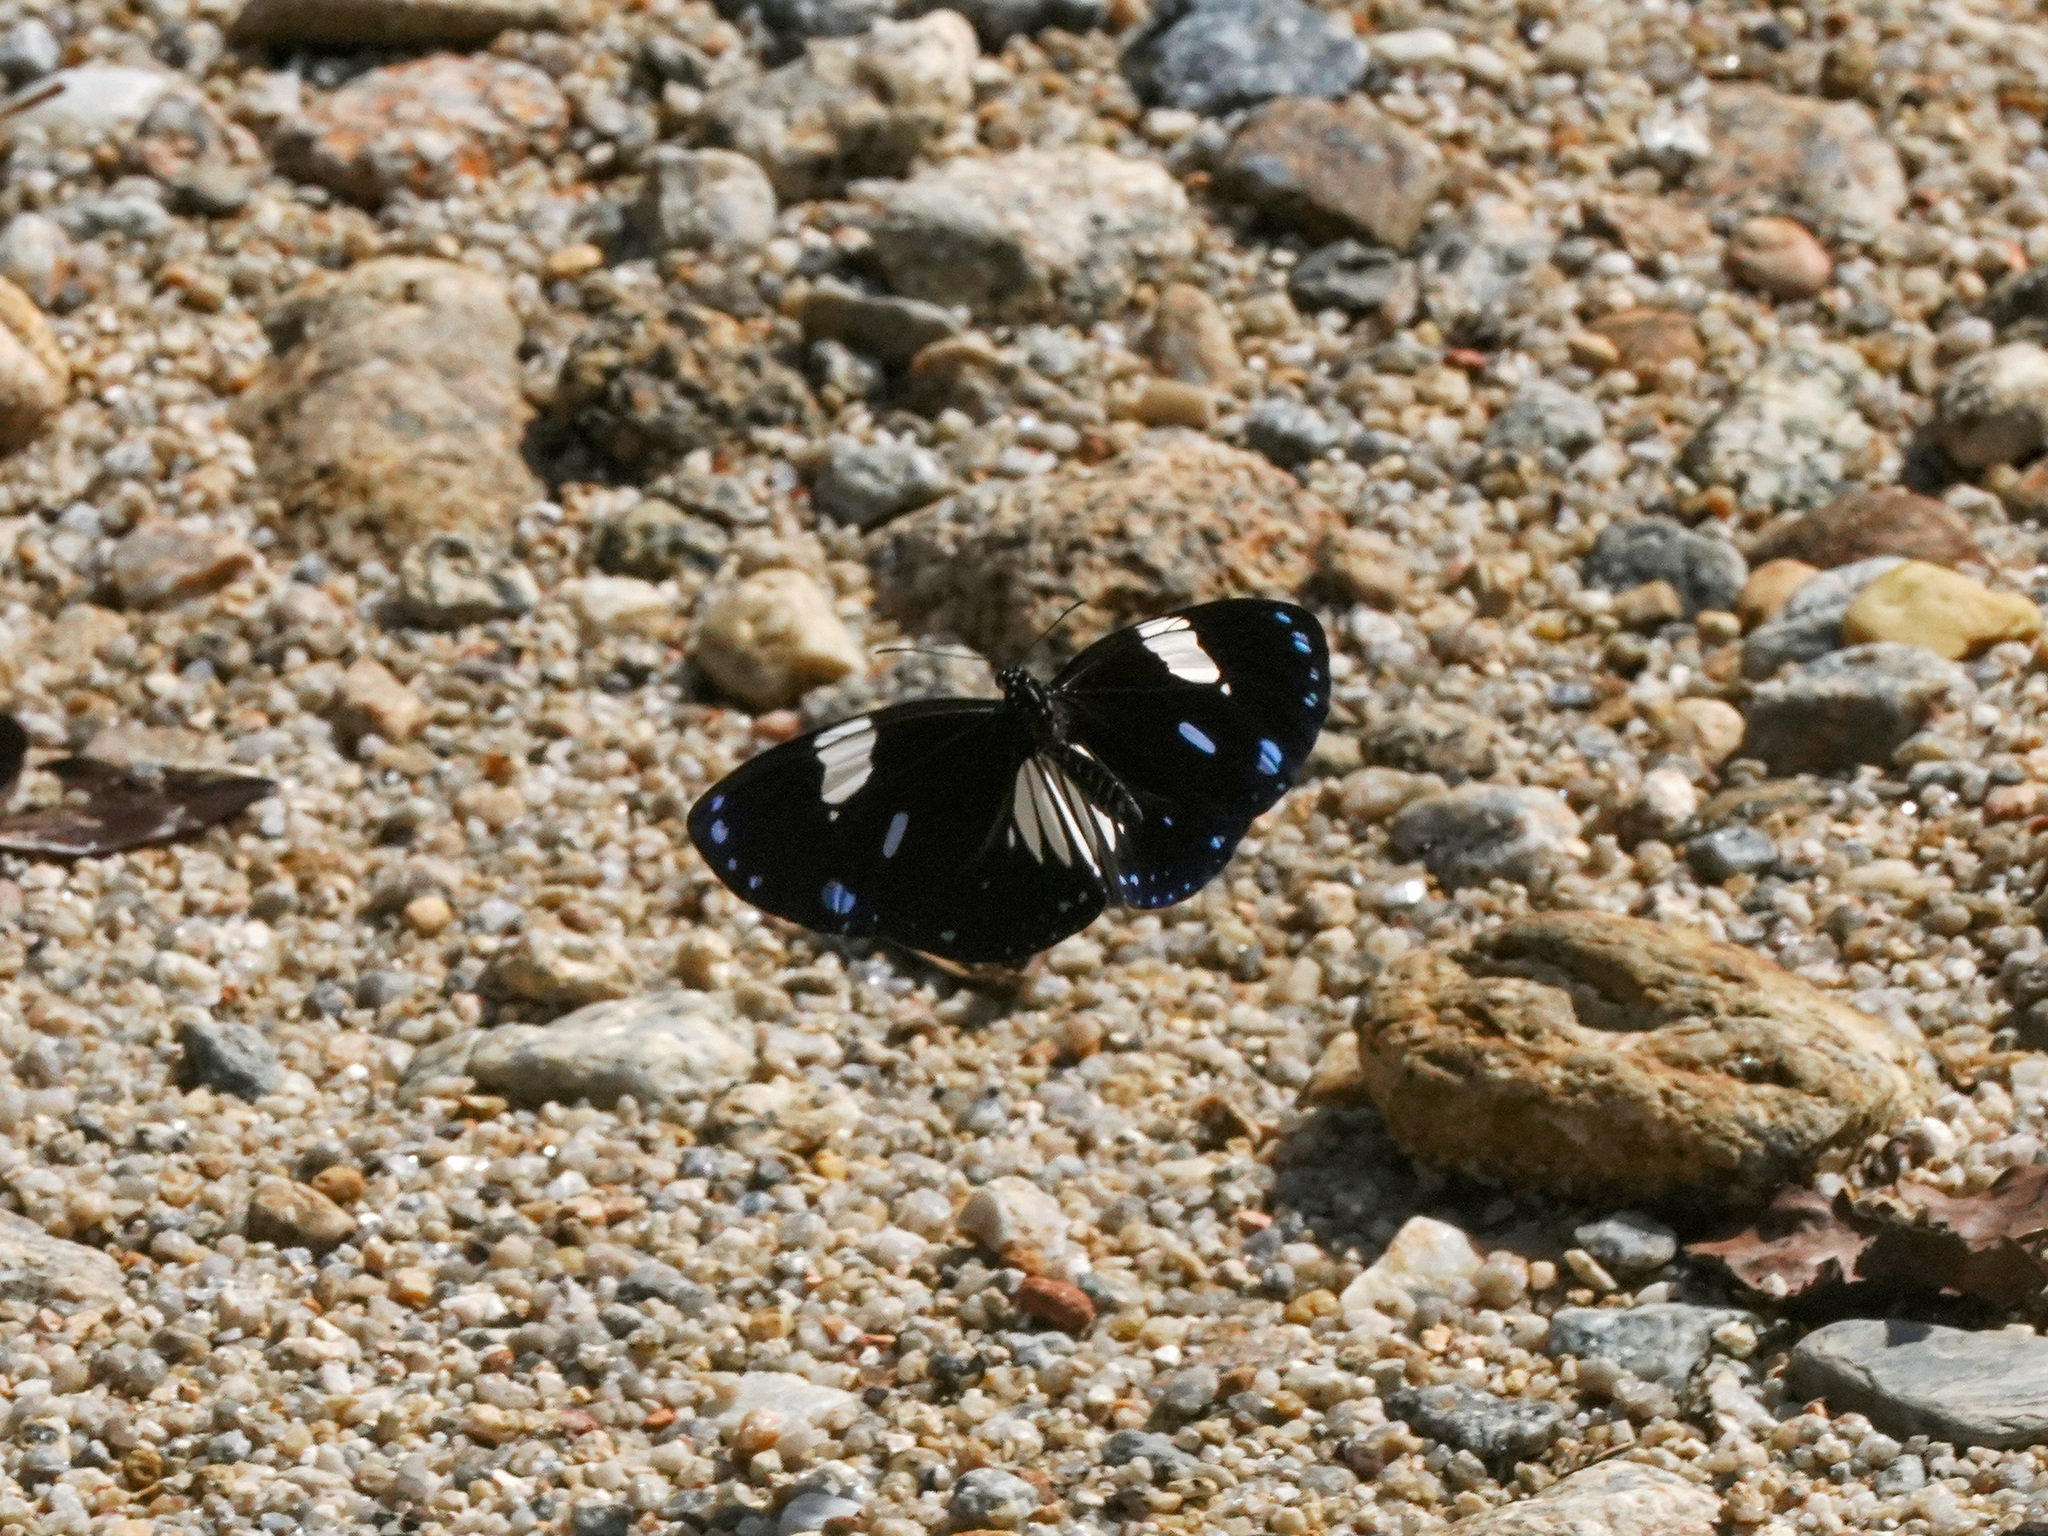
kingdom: Animalia
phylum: Arthropoda
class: Insecta
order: Lepidoptera
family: Nymphalidae
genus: Euploea
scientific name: Euploea radamanthus
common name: Magpie crow butterfly
